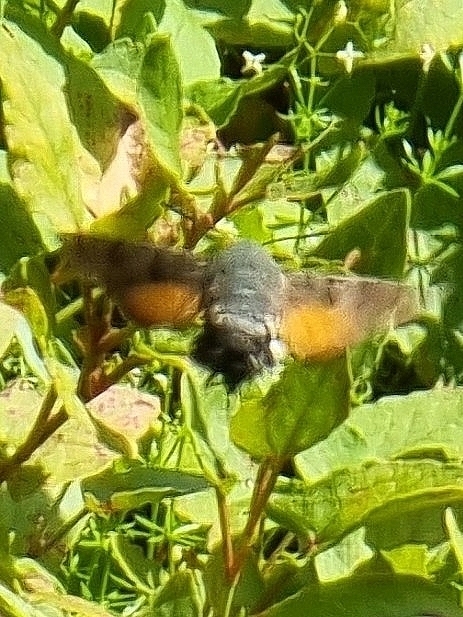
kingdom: Animalia
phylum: Arthropoda
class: Insecta
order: Lepidoptera
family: Sphingidae
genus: Macroglossum
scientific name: Macroglossum stellatarum
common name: Humming-bird hawk-moth
